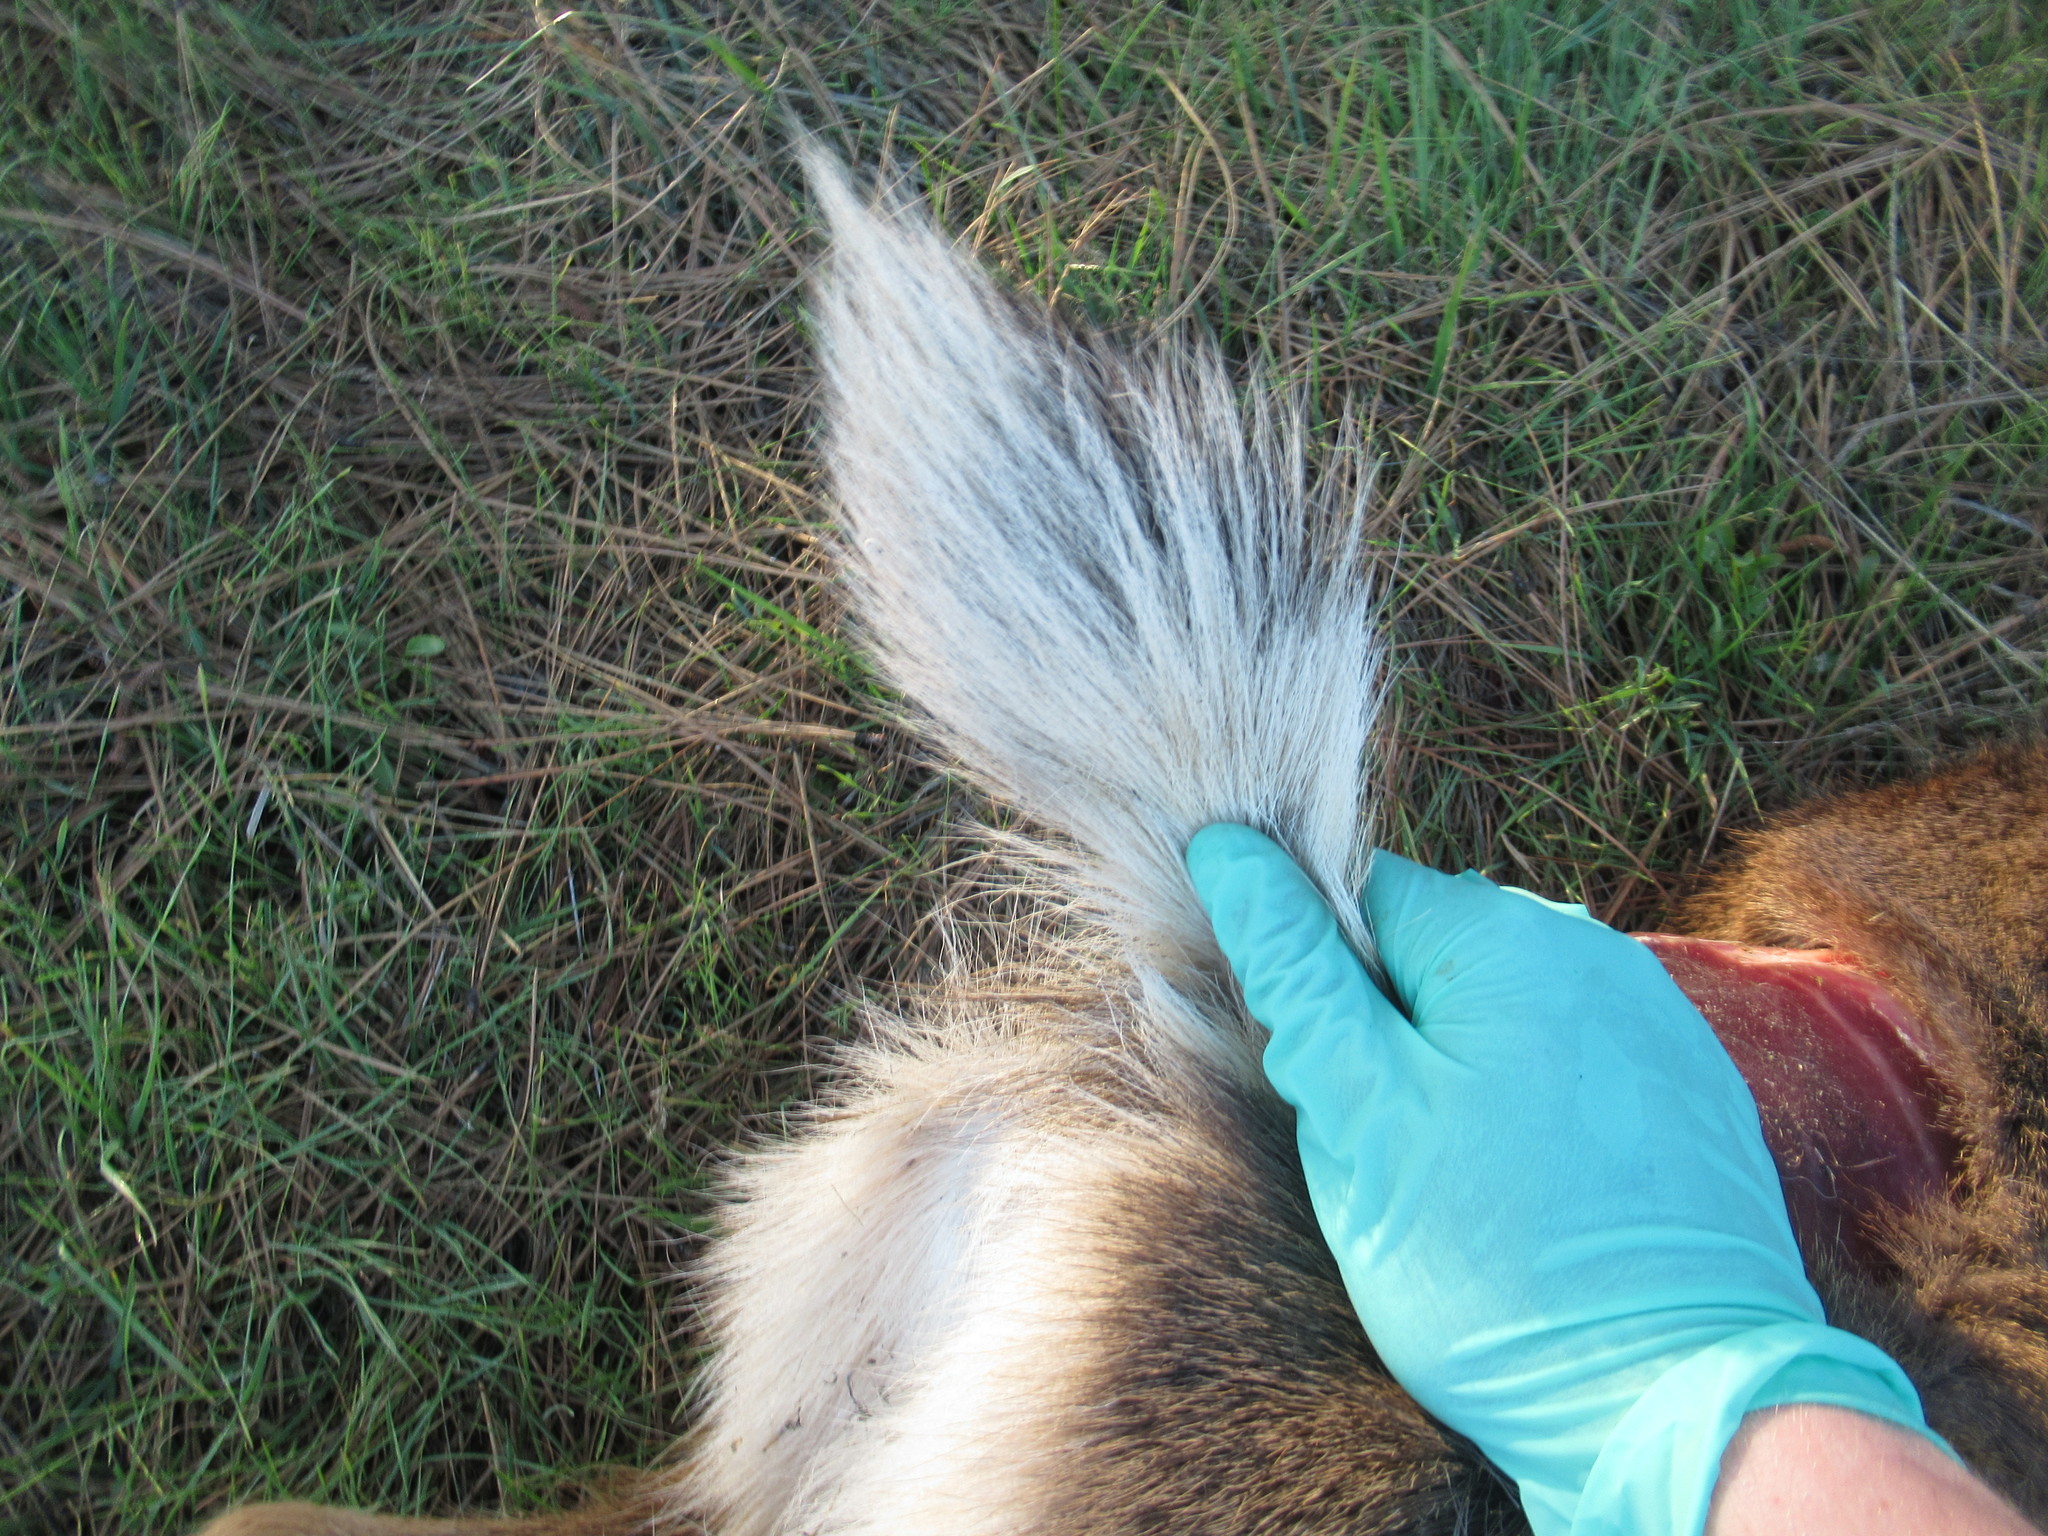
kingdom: Animalia
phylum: Chordata
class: Mammalia
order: Artiodactyla
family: Cervidae
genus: Odocoileus
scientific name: Odocoileus hemionus
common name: Mule deer
